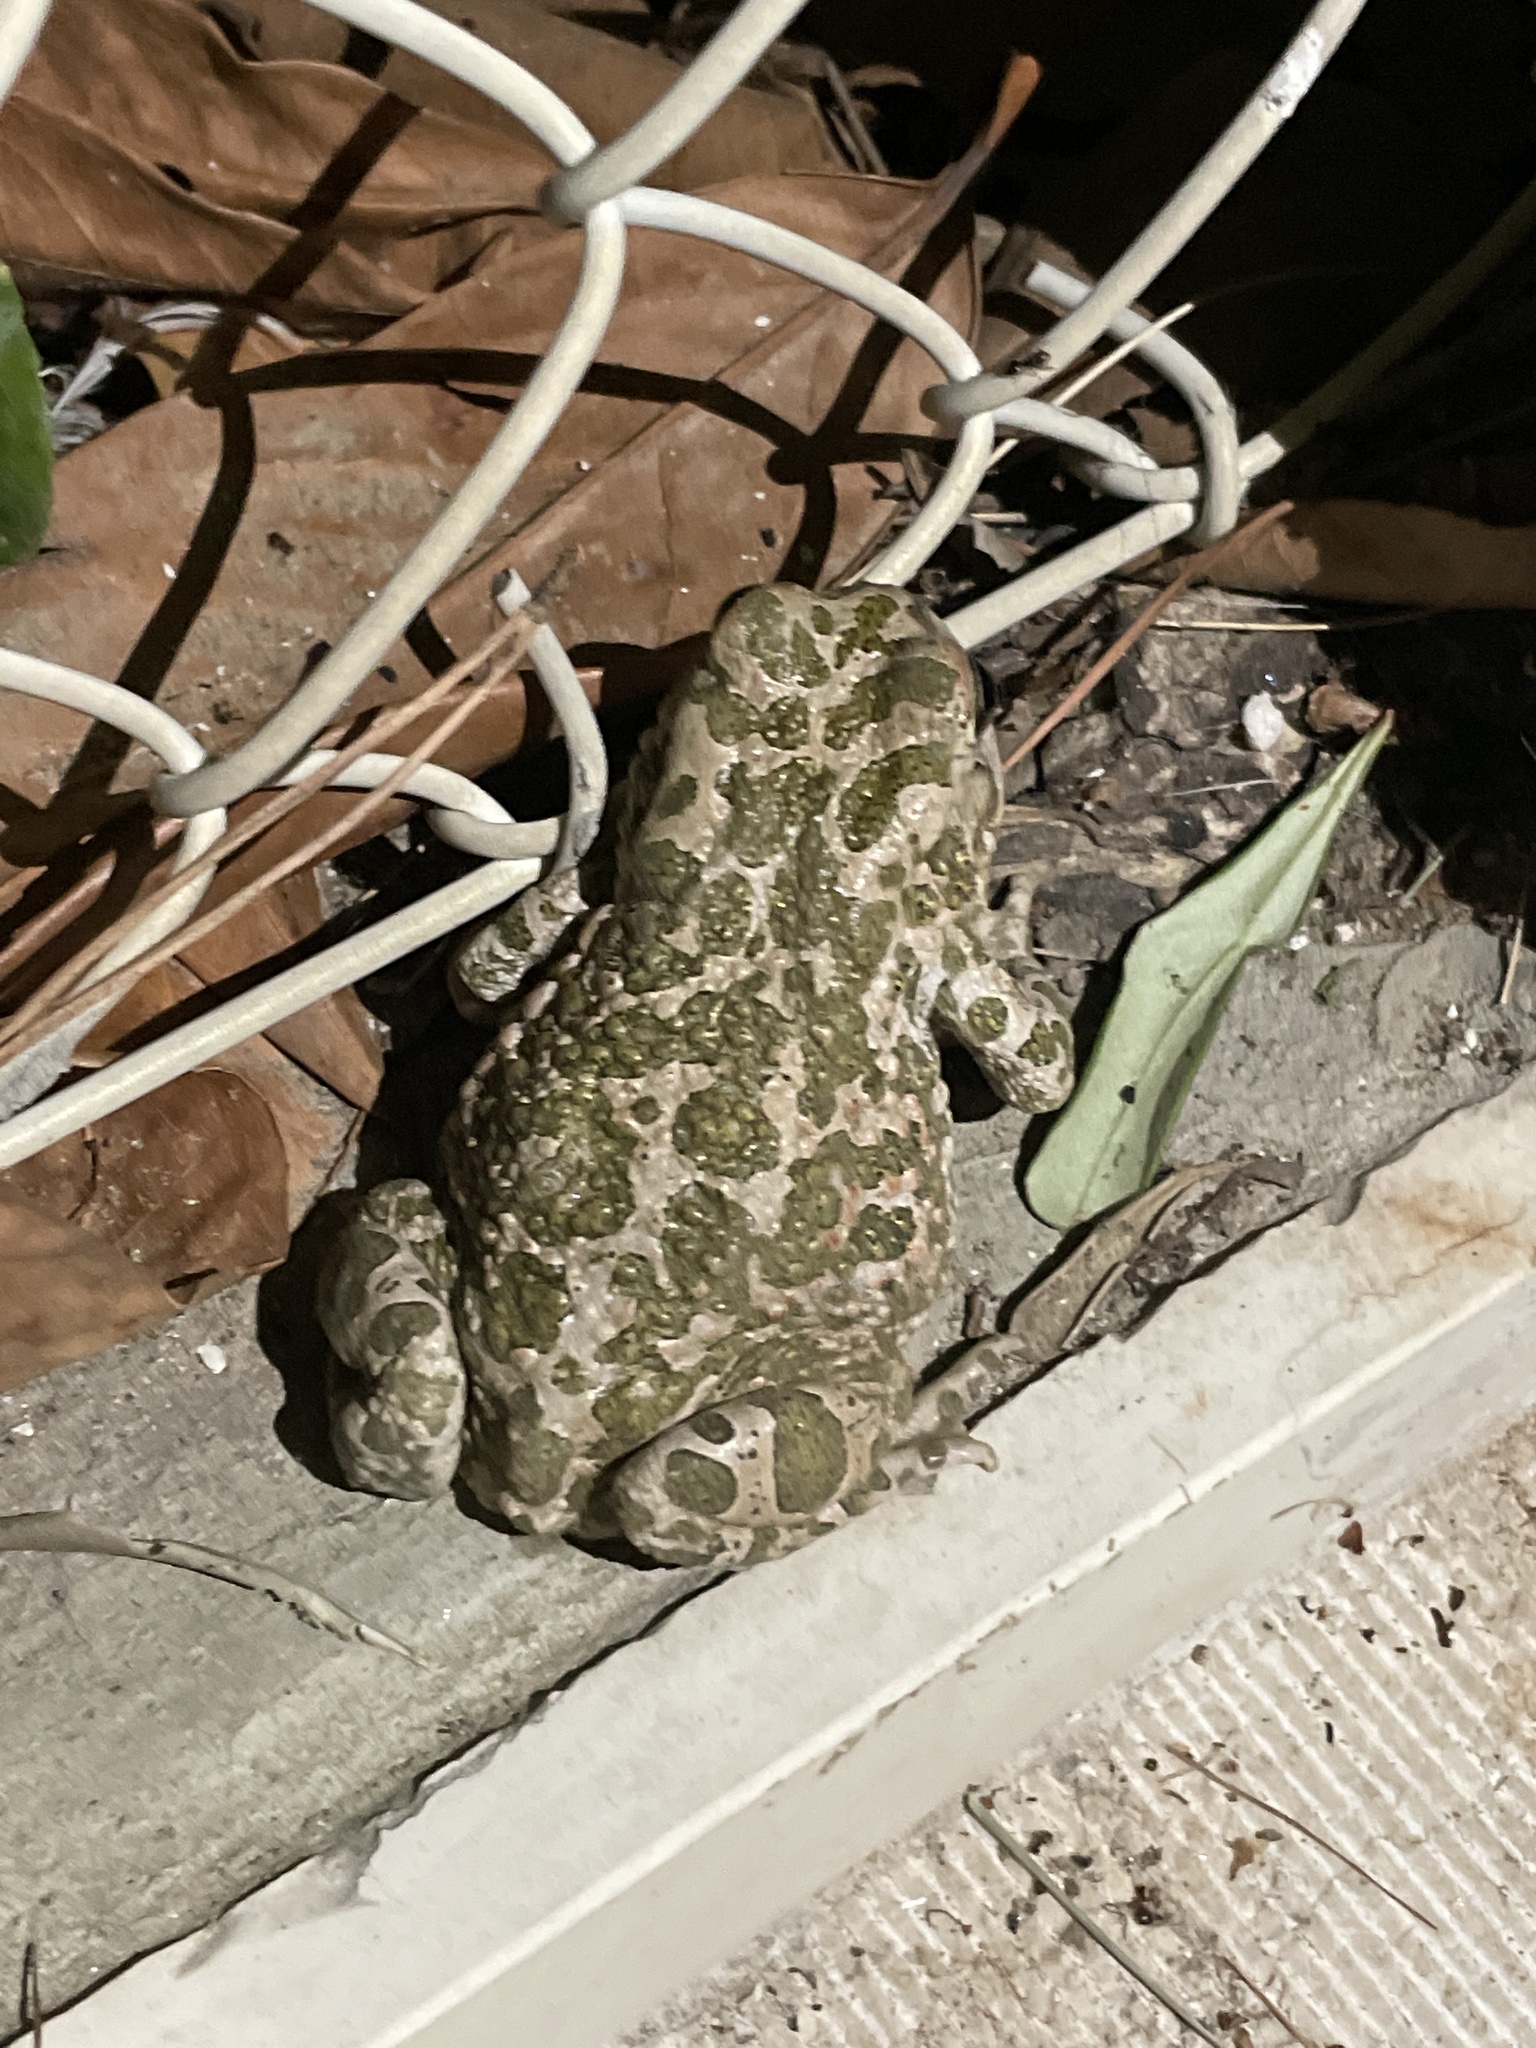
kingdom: Animalia
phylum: Chordata
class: Amphibia
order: Anura
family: Bufonidae
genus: Bufotes
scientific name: Bufotes viridis
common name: European green toad
